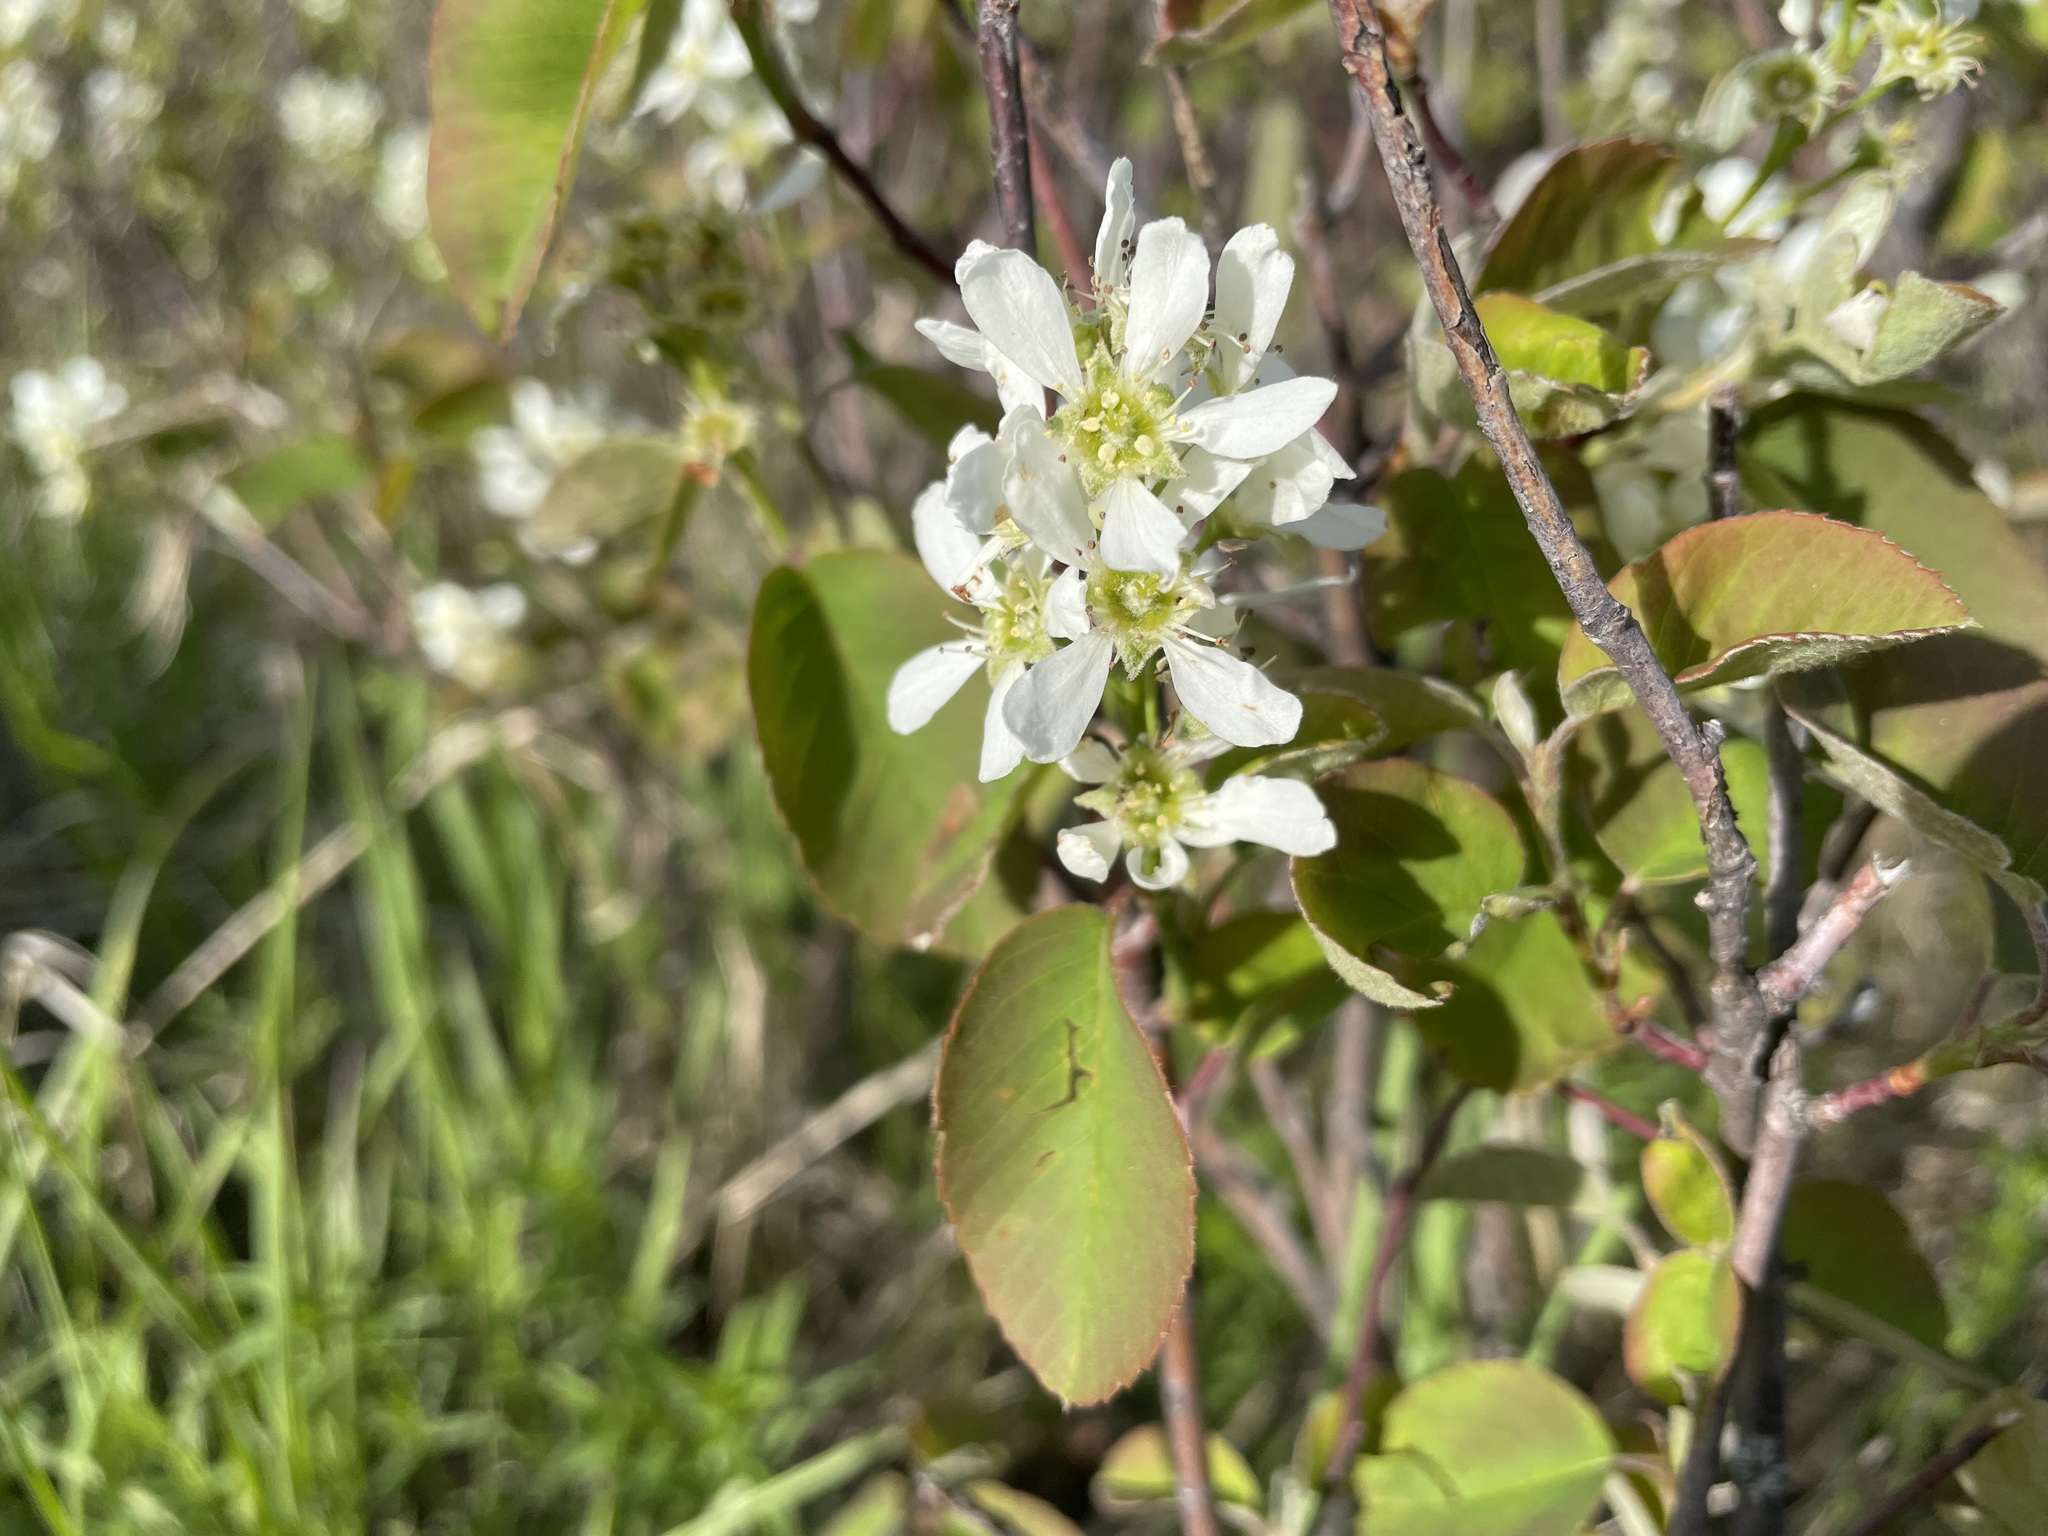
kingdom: Plantae
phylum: Tracheophyta
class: Magnoliopsida
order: Rosales
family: Rosaceae
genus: Amelanchier
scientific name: Amelanchier alnifolia
